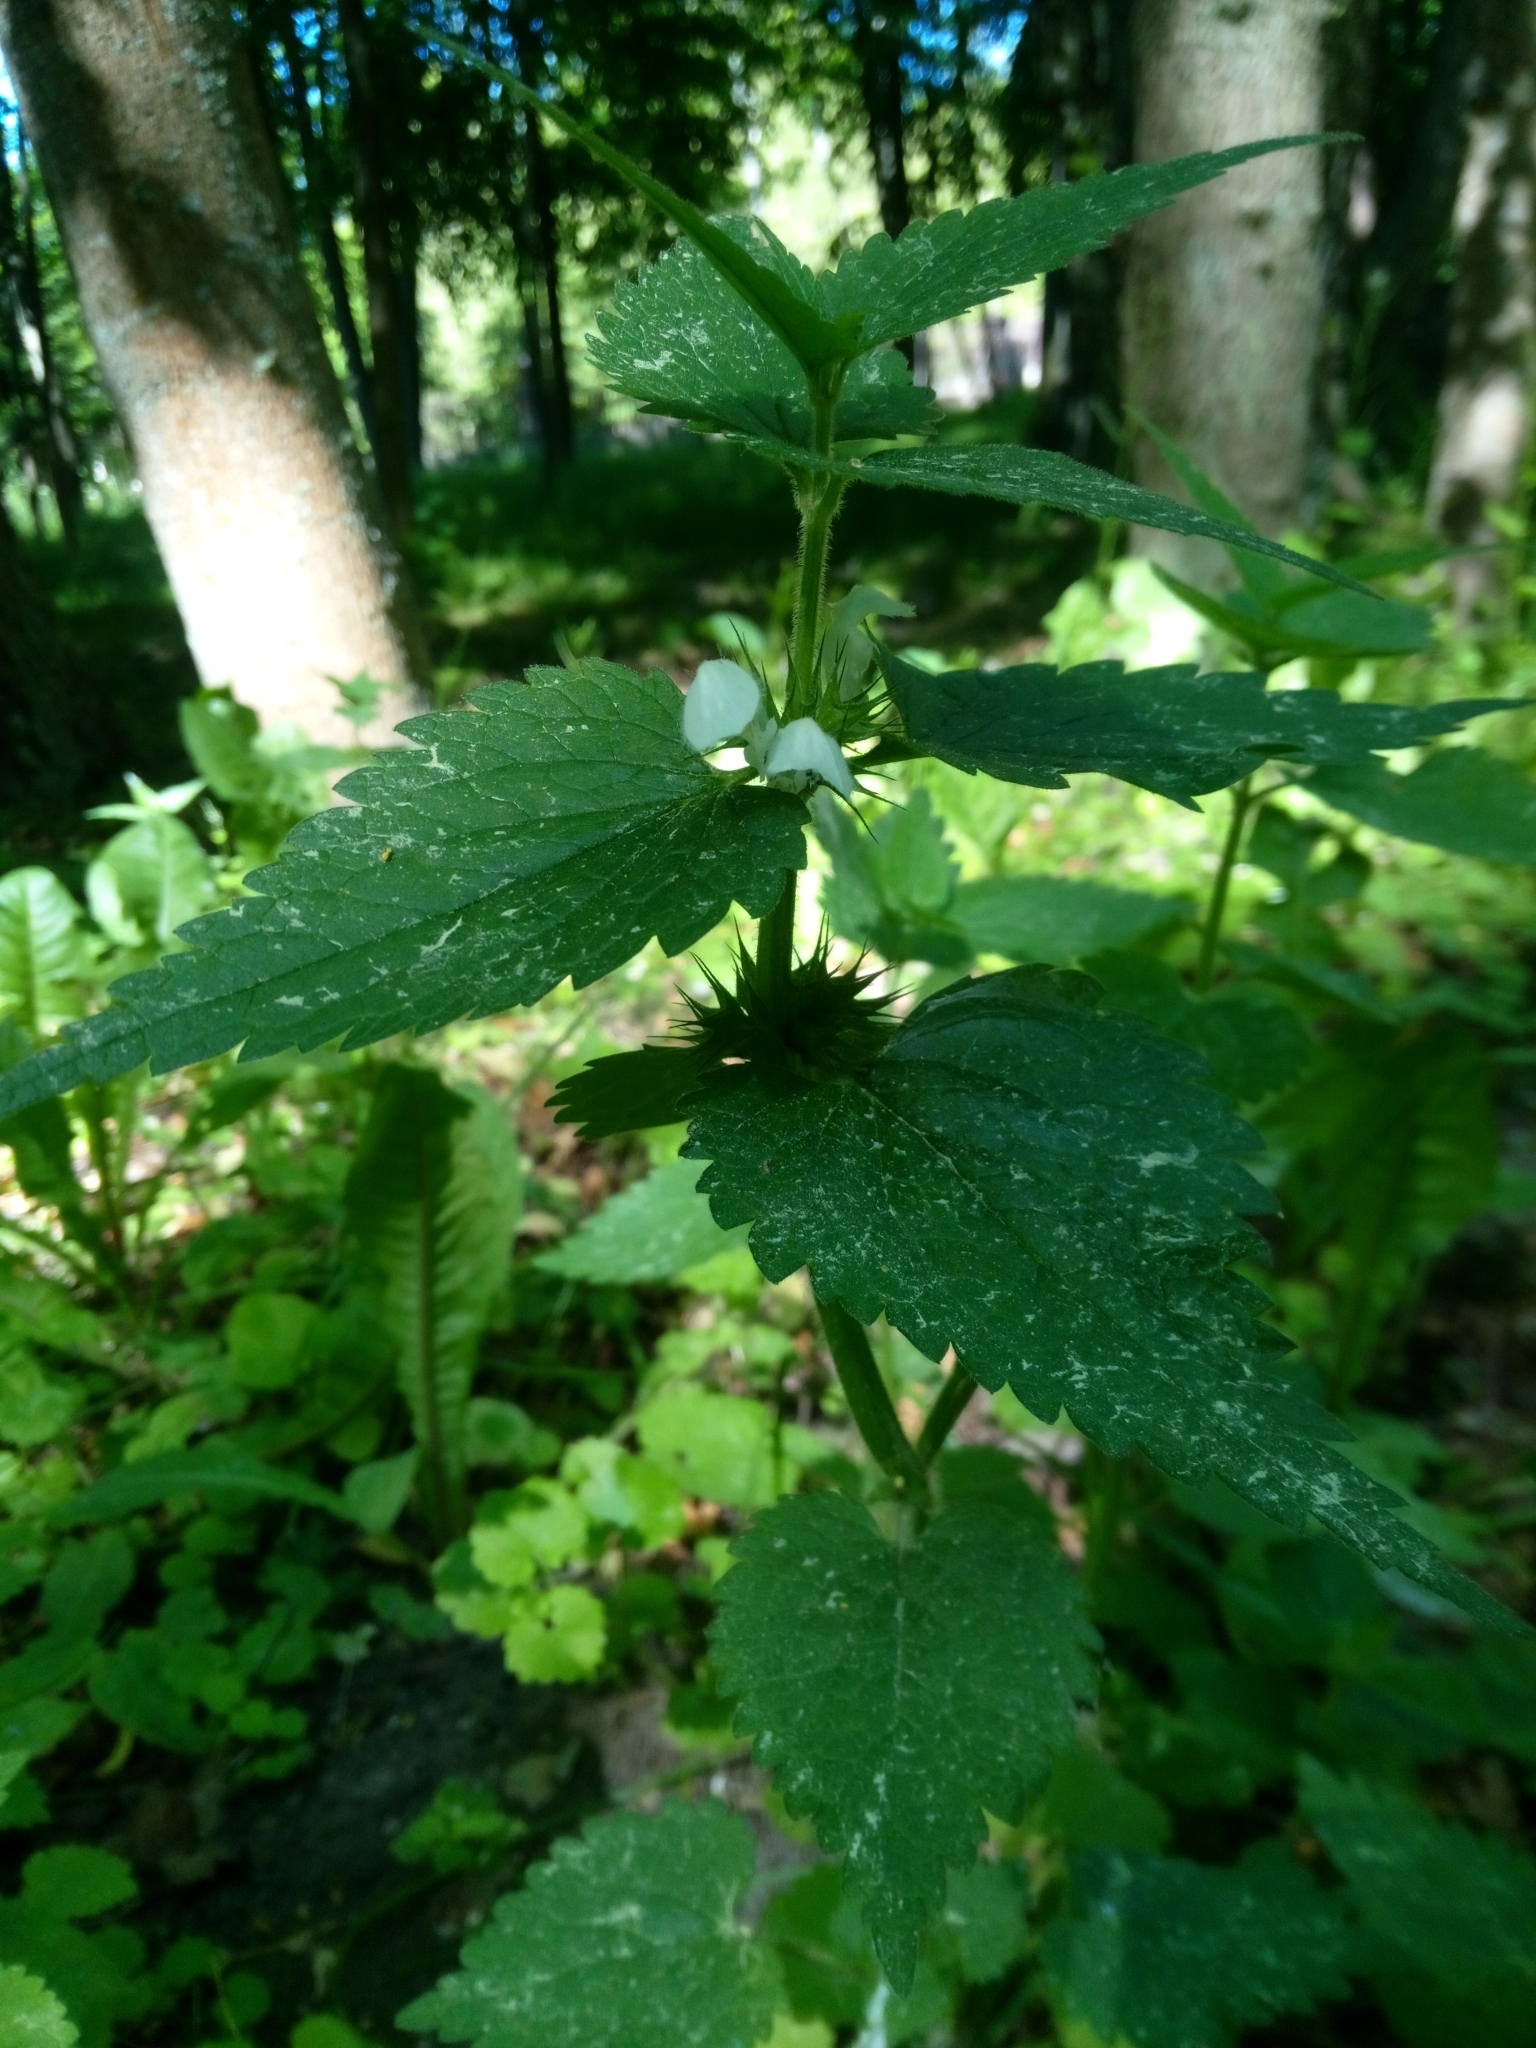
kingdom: Plantae
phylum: Tracheophyta
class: Magnoliopsida
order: Lamiales
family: Lamiaceae
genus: Lamium
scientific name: Lamium album
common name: White dead-nettle
